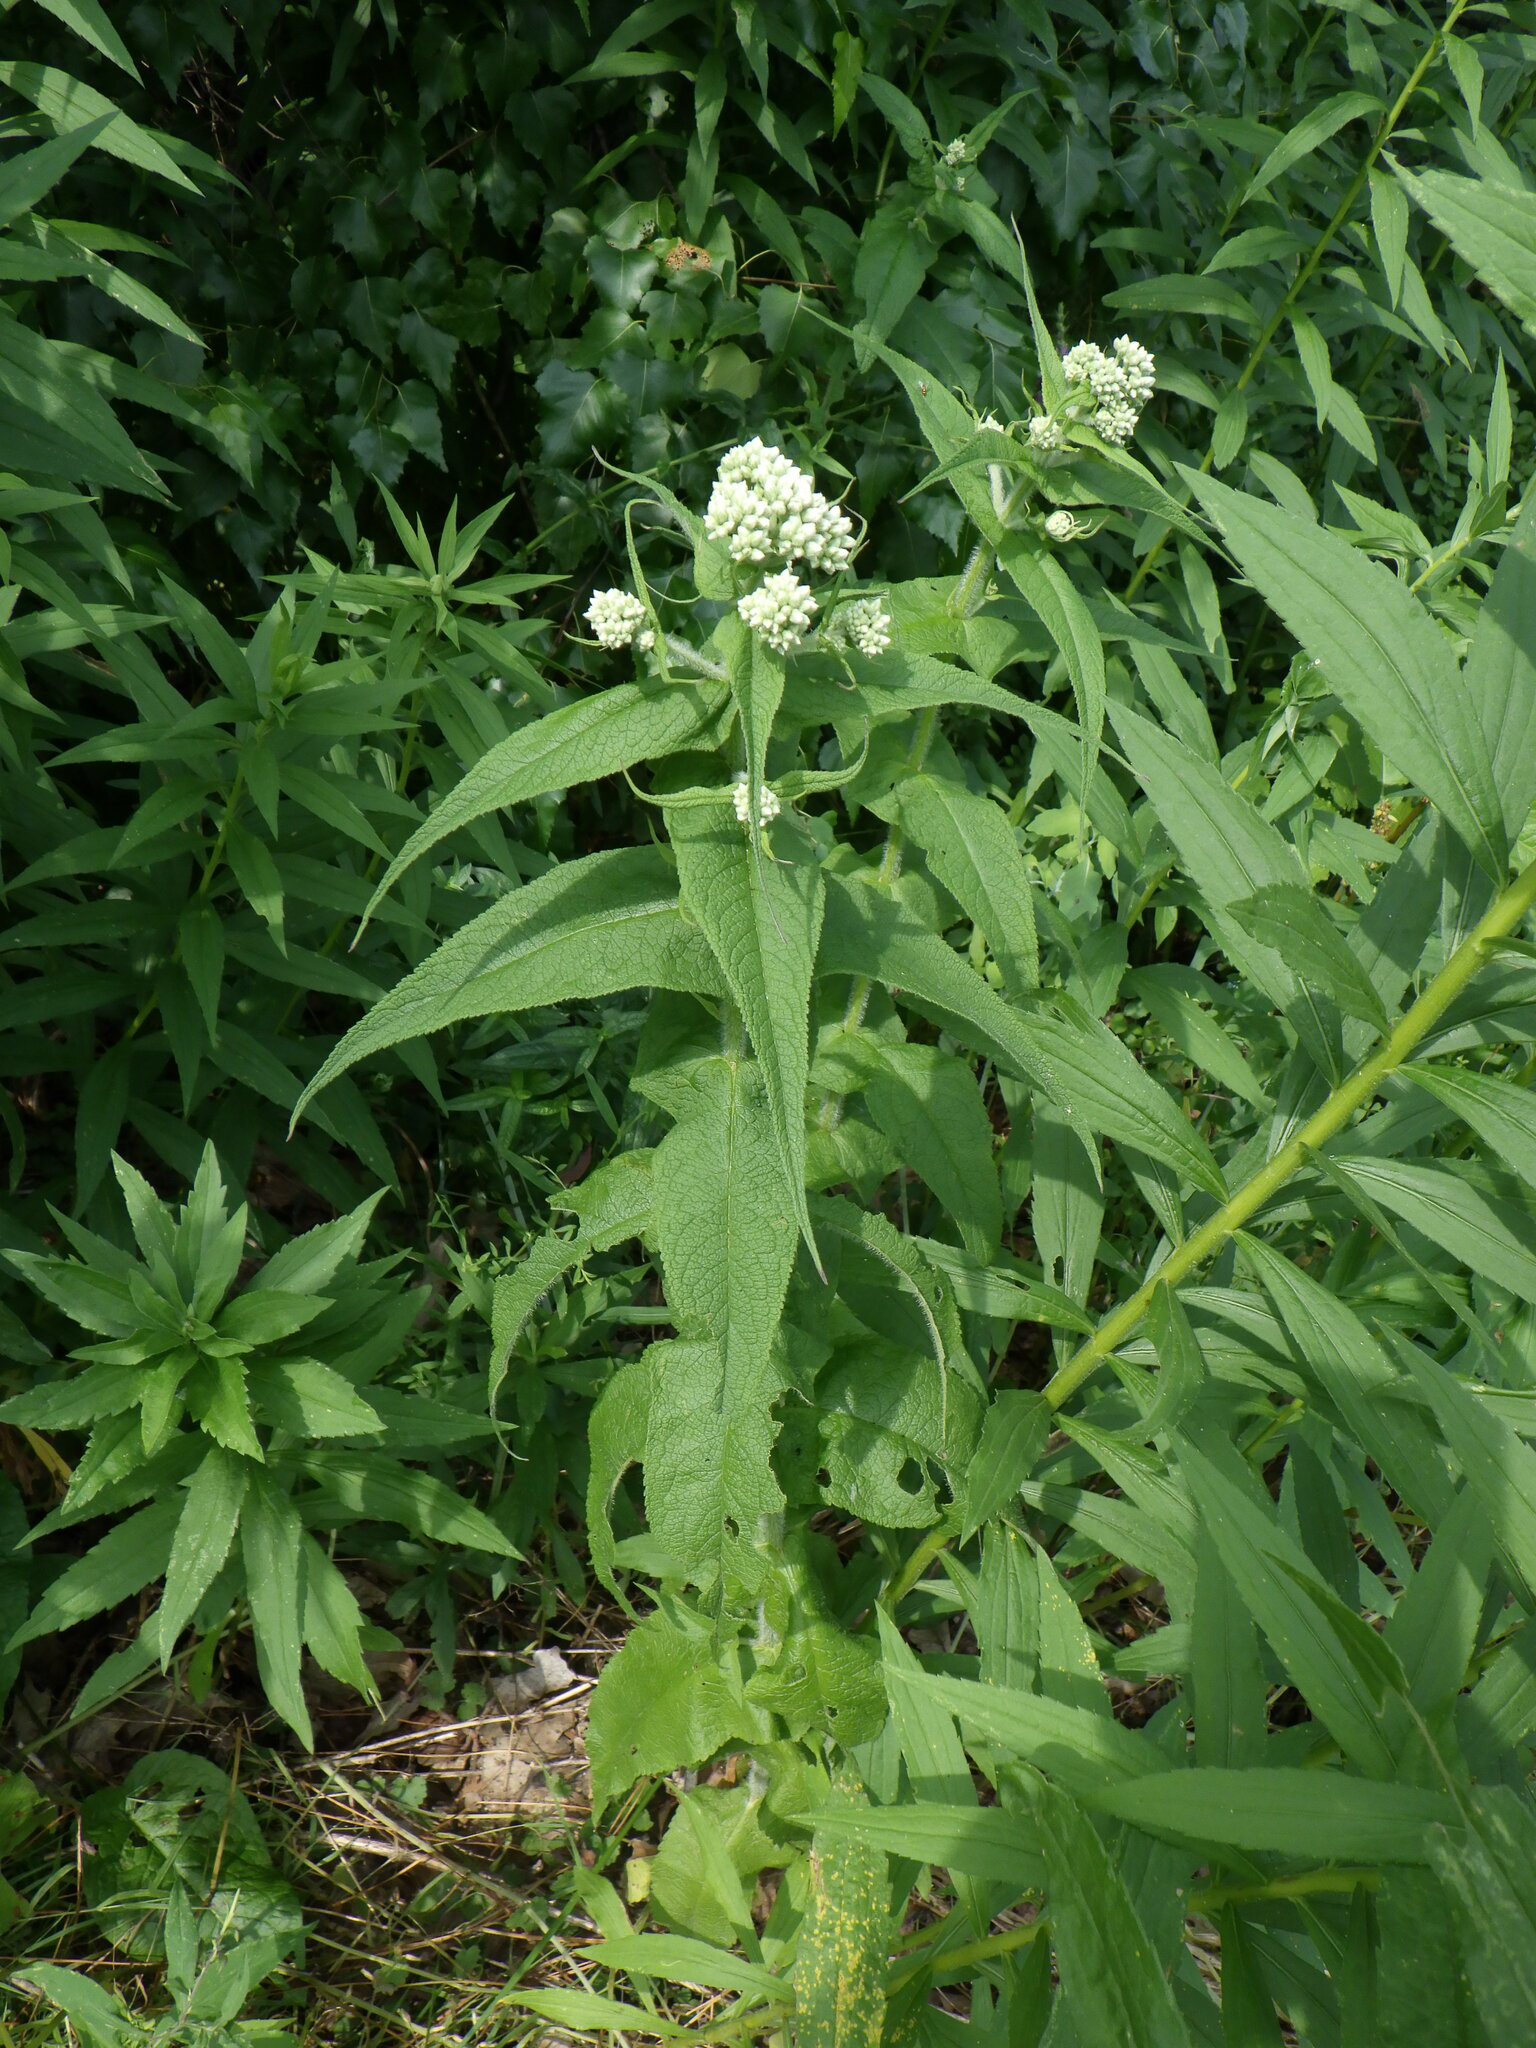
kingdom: Plantae
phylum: Tracheophyta
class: Magnoliopsida
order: Asterales
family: Asteraceae
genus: Eupatorium
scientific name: Eupatorium perfoliatum
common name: Boneset
